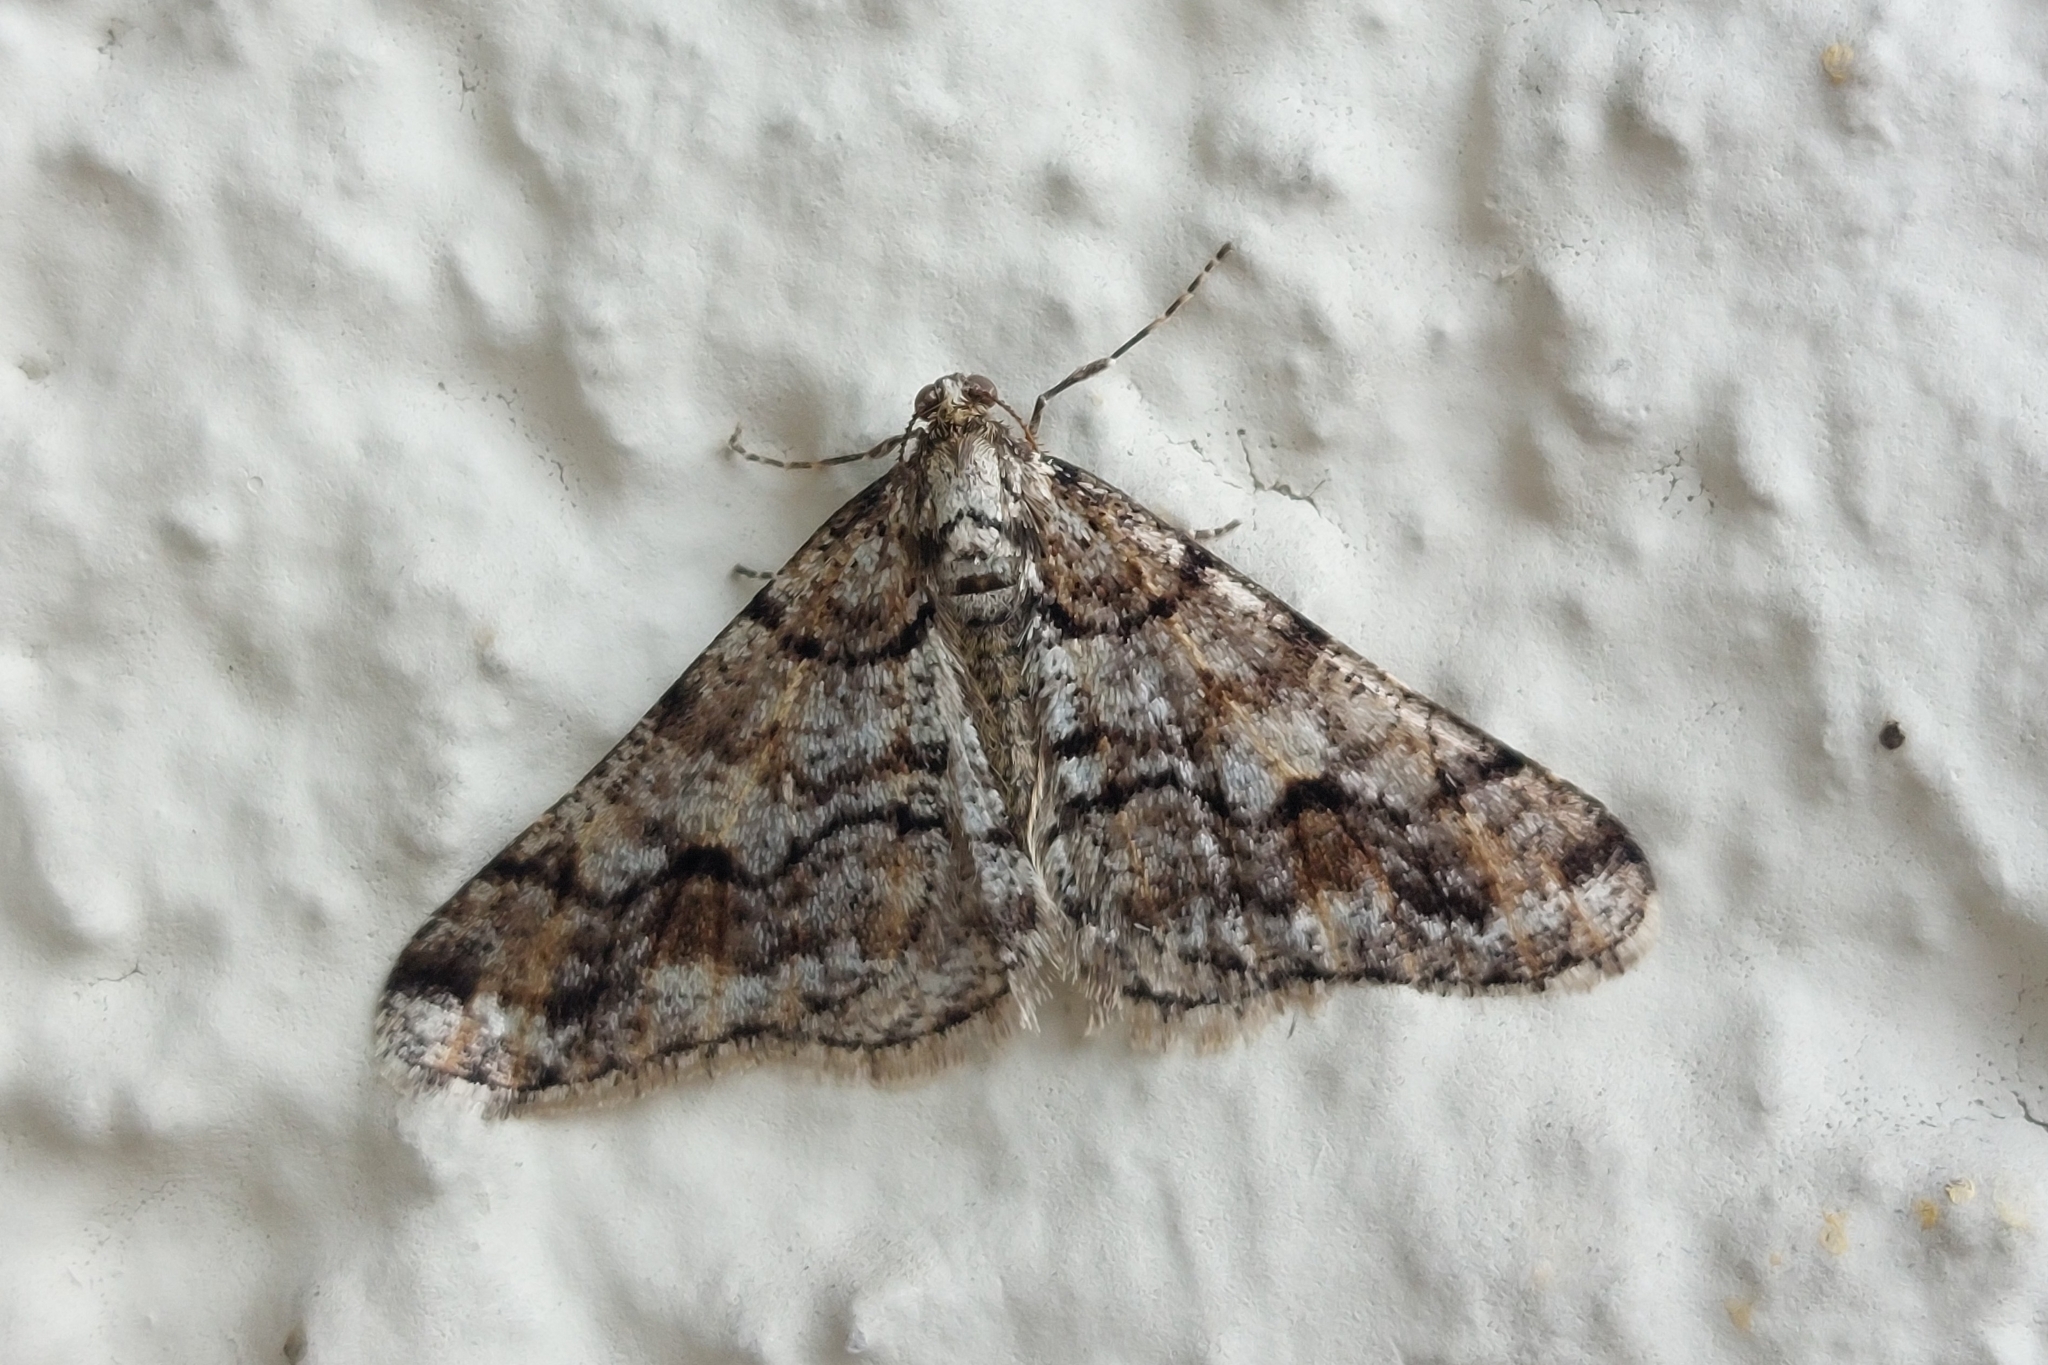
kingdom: Animalia
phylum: Arthropoda
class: Insecta
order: Lepidoptera
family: Geometridae
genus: Agriopis
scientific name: Agriopis leucophaearia
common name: Spring usher
